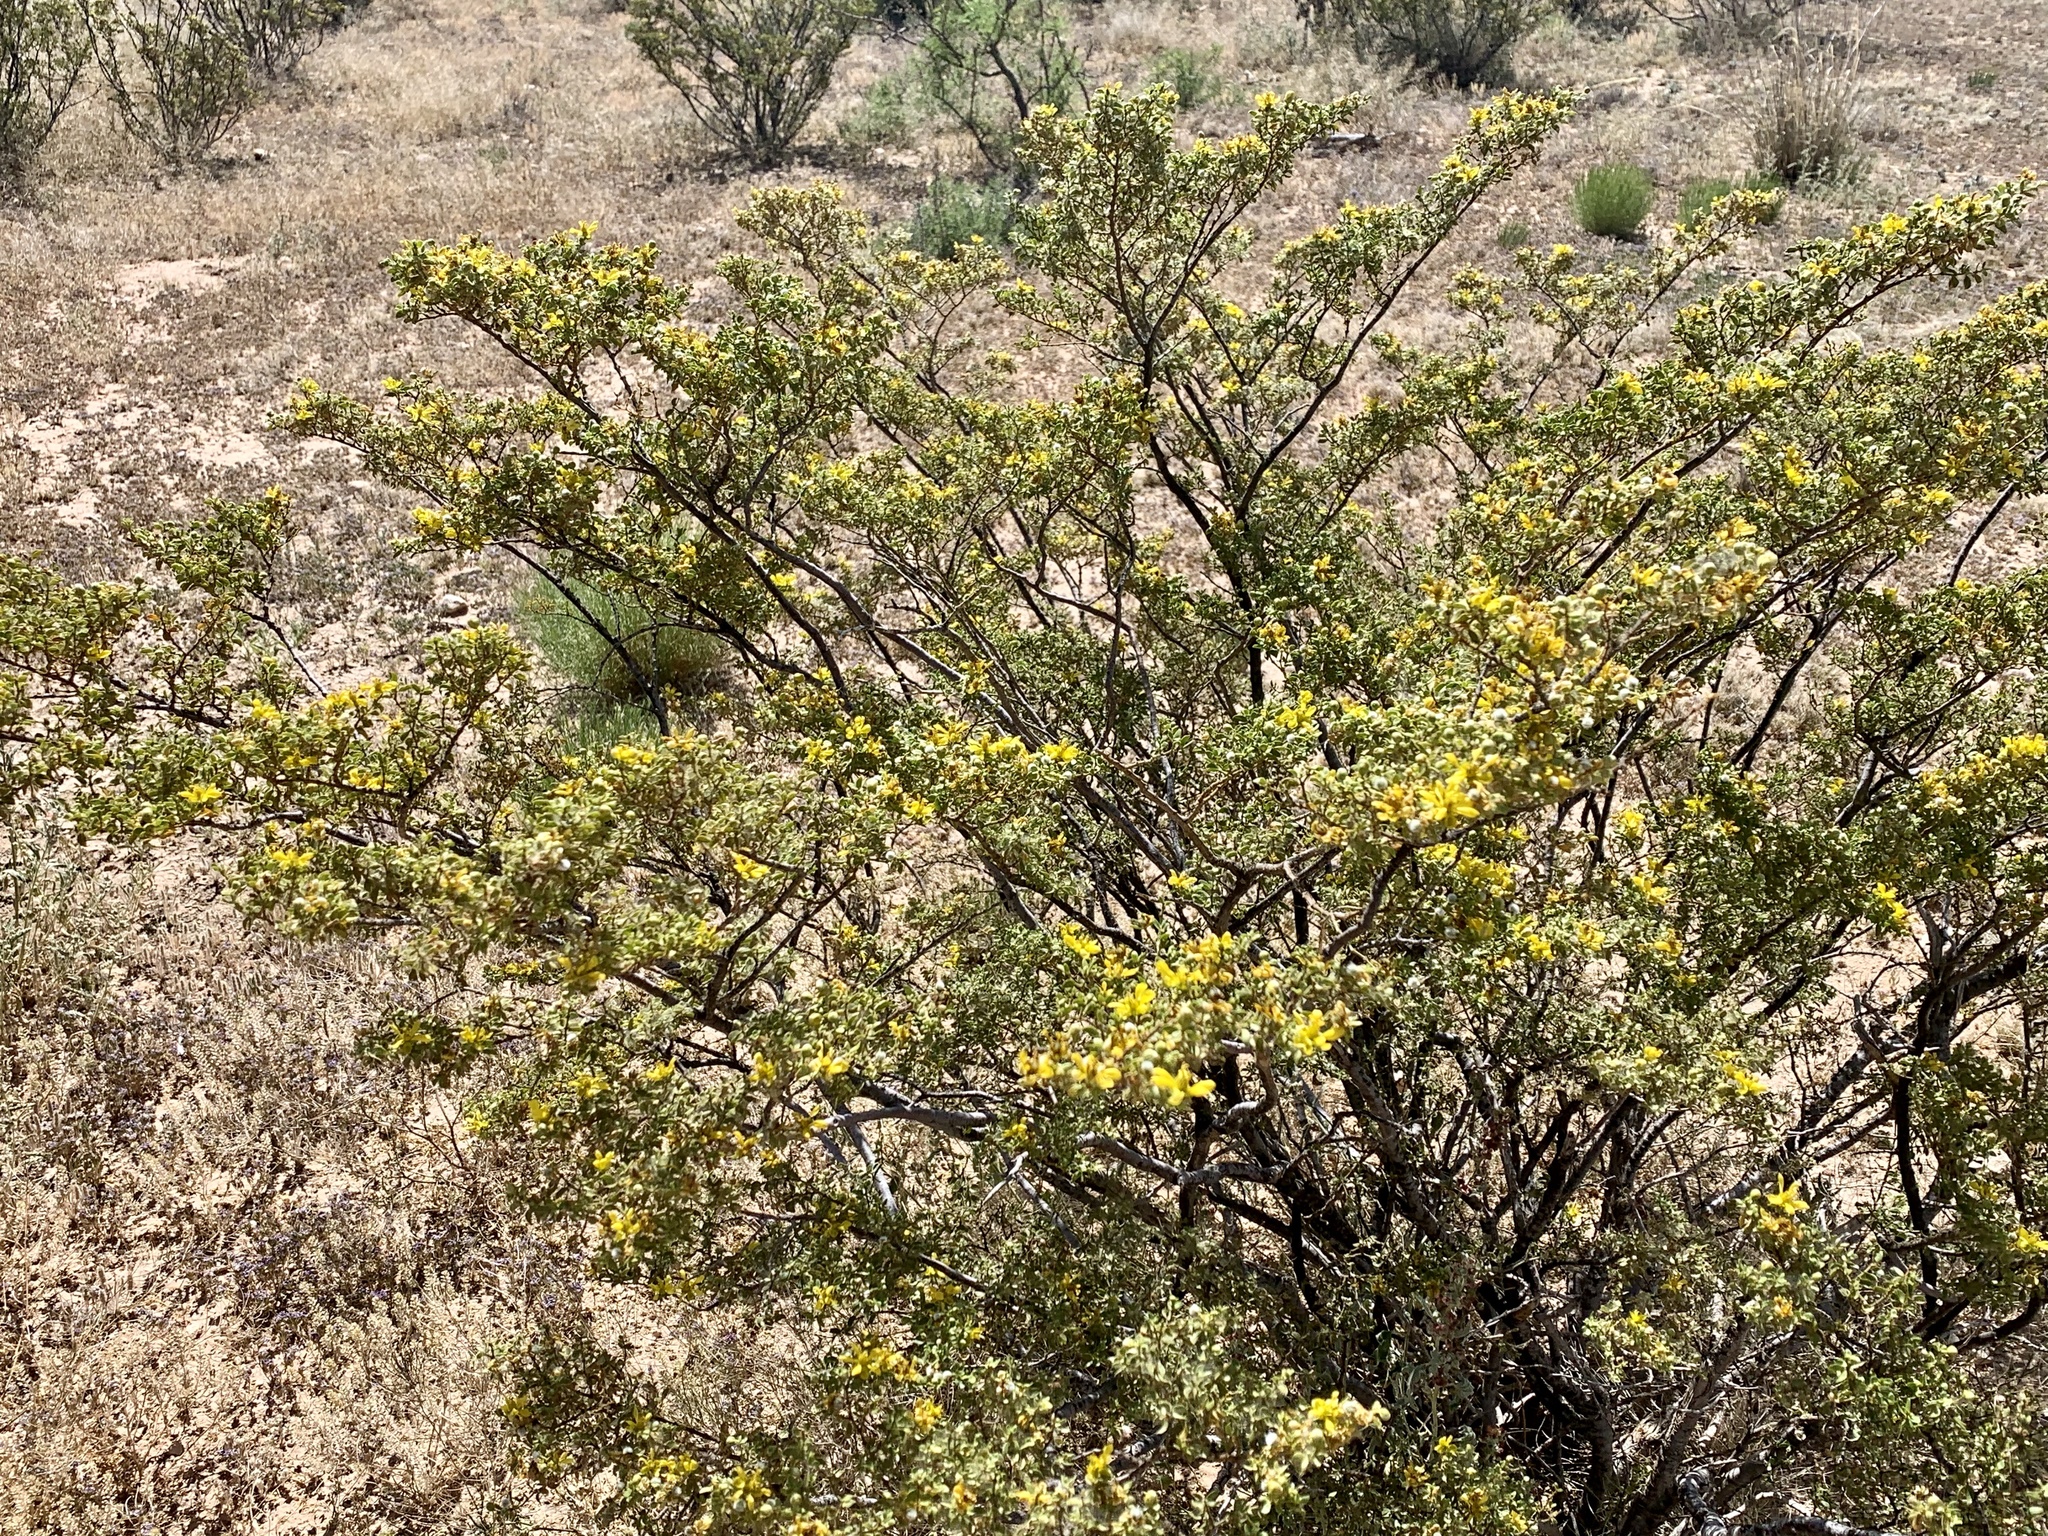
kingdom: Plantae
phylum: Tracheophyta
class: Magnoliopsida
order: Zygophyllales
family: Zygophyllaceae
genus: Larrea
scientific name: Larrea tridentata
